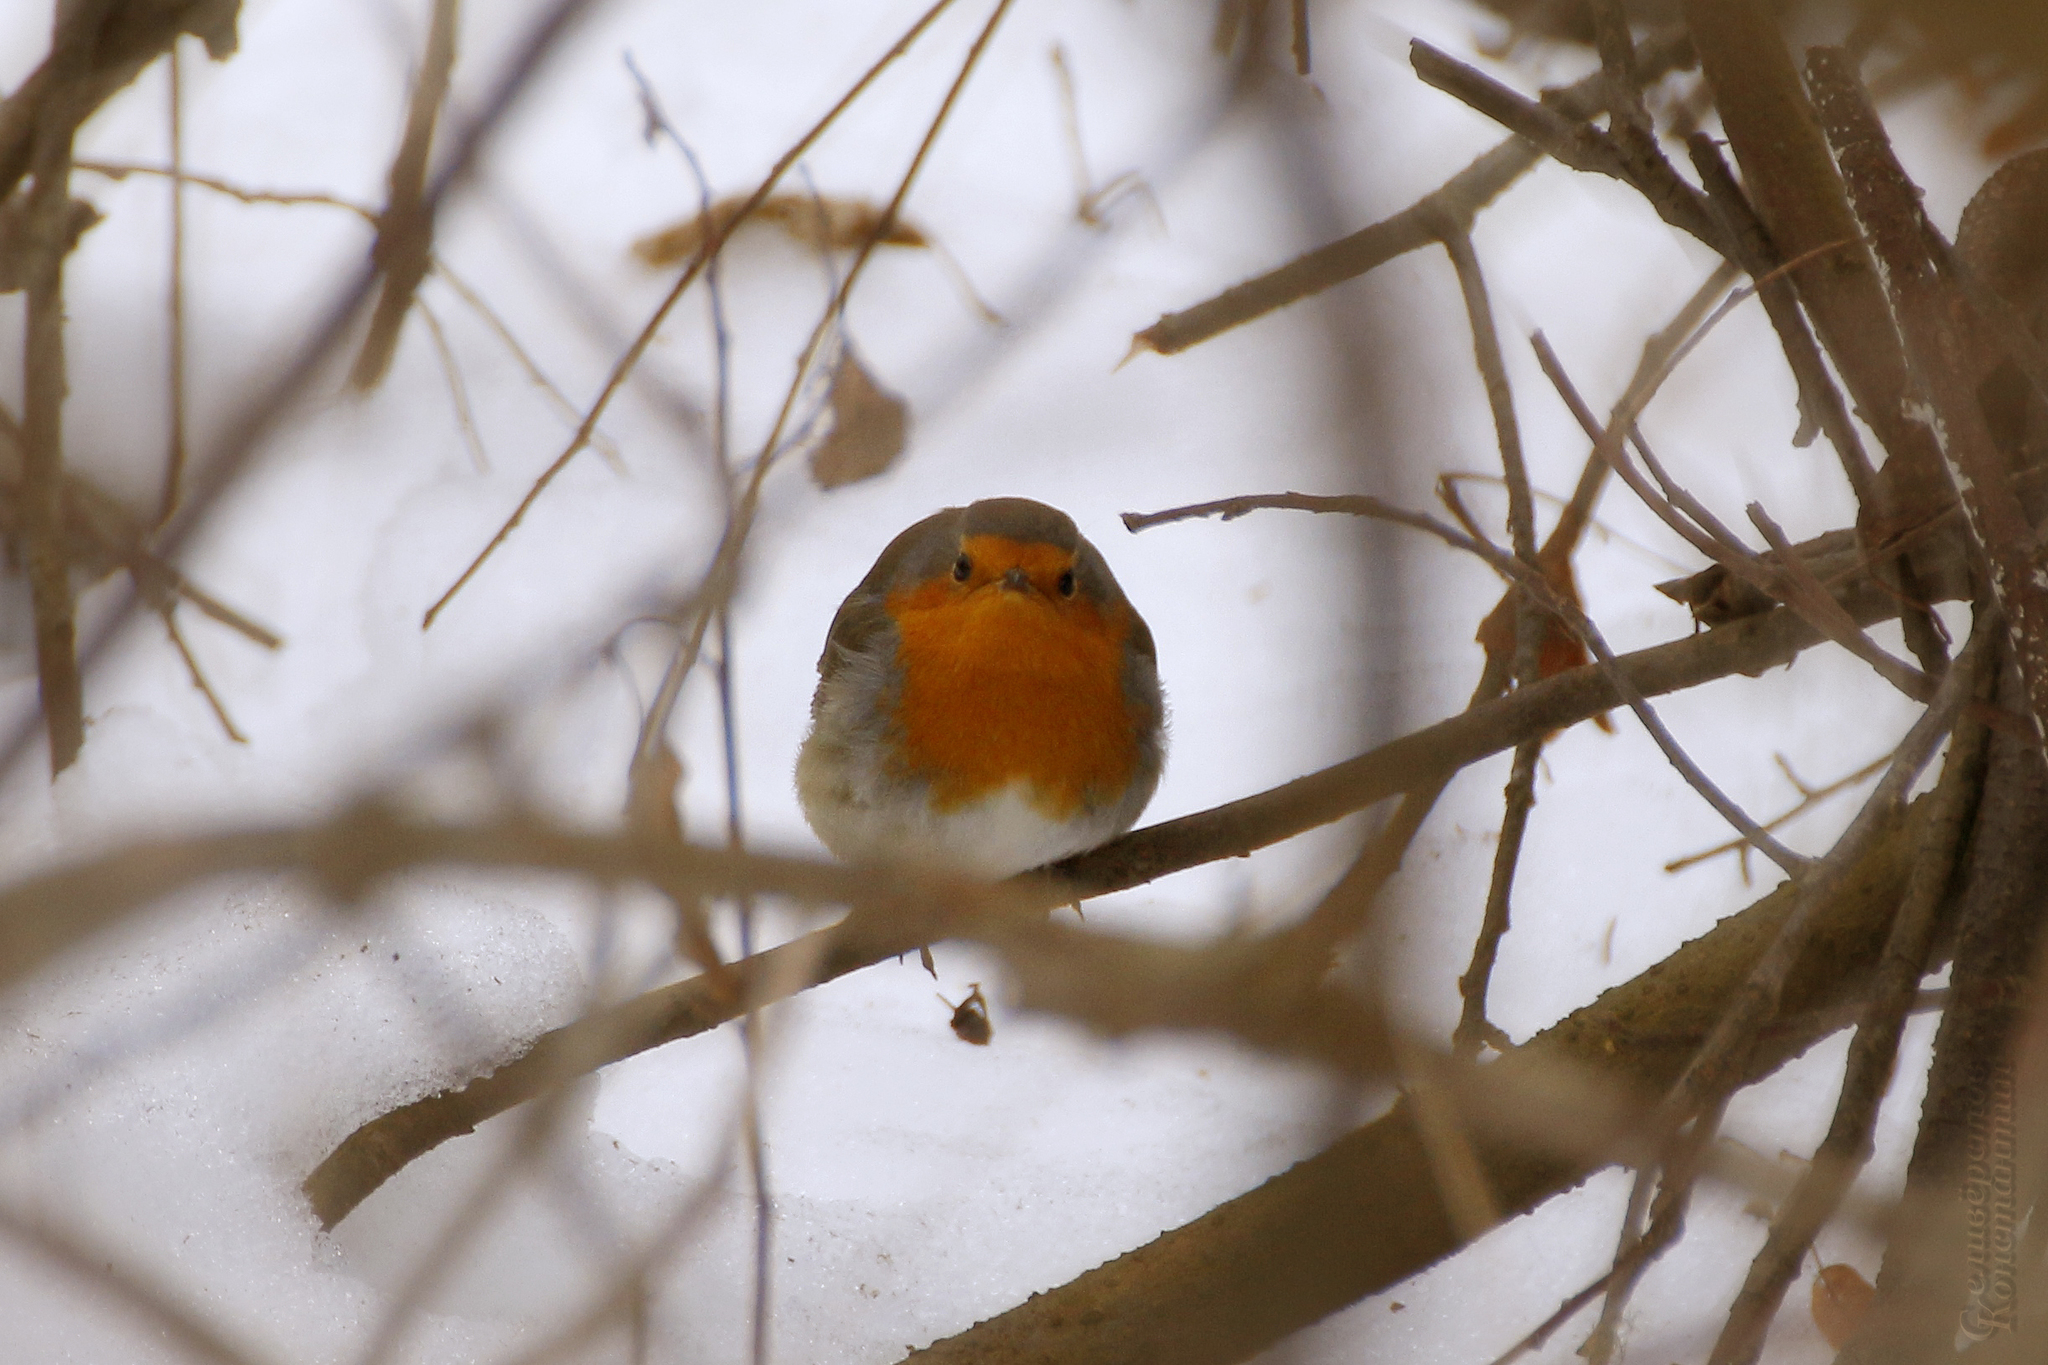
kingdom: Animalia
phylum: Chordata
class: Aves
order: Passeriformes
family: Muscicapidae
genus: Erithacus
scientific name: Erithacus rubecula
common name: European robin
